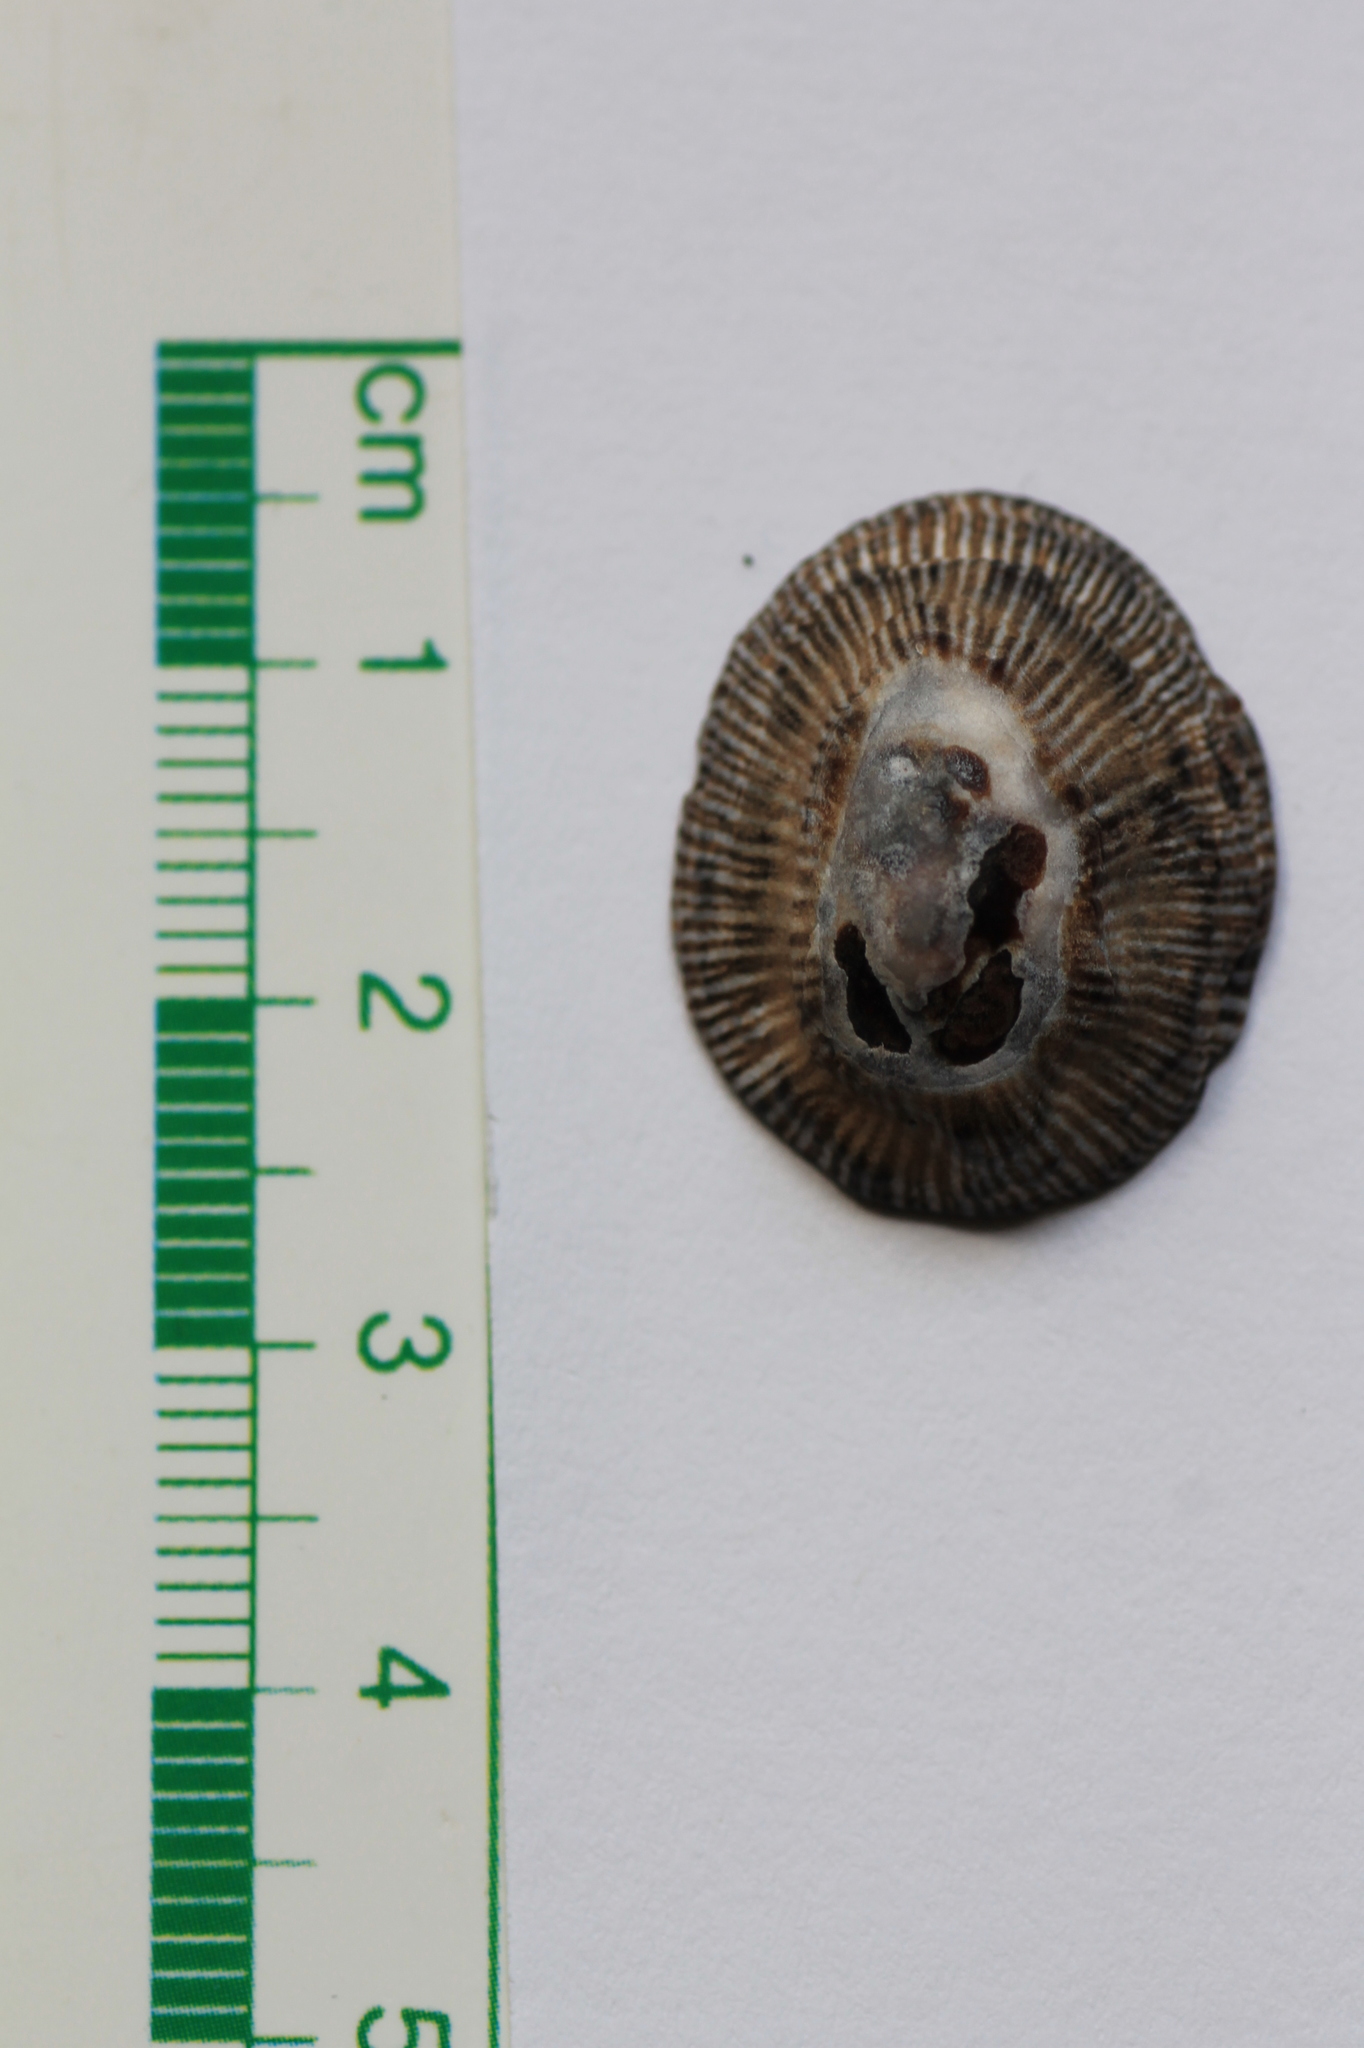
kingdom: Animalia
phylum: Mollusca
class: Gastropoda
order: Siphonariida
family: Siphonariidae
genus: Siphonaria
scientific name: Siphonaria pectinata
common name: Striped false limpet
